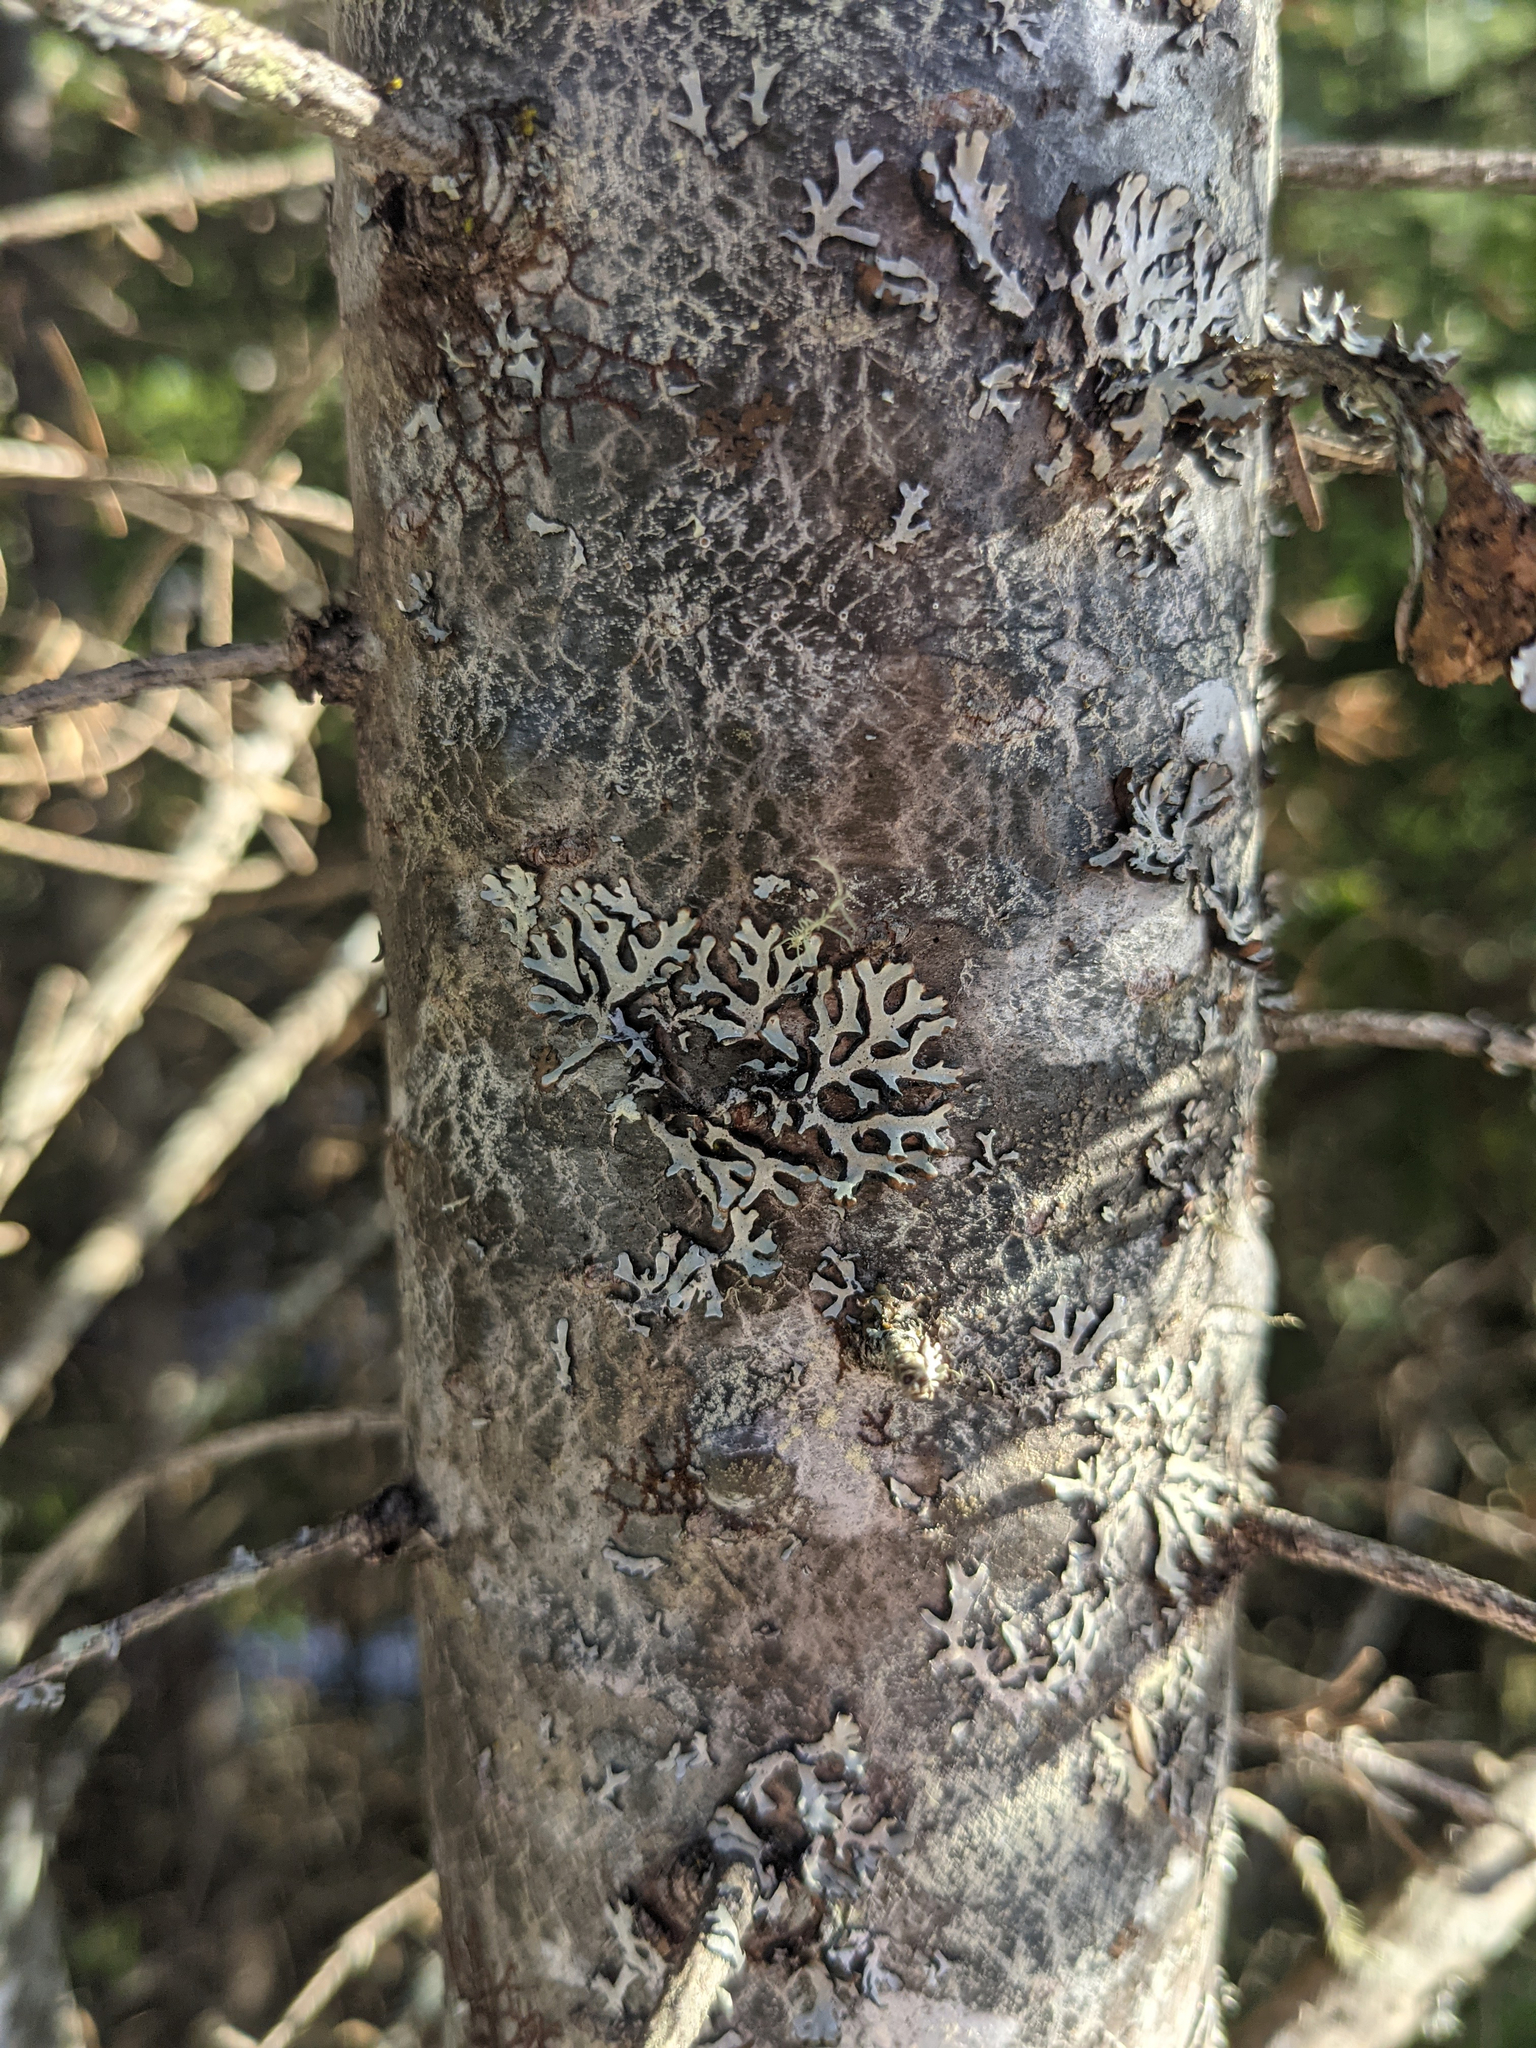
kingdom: Fungi
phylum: Ascomycota
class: Lecanoromycetes
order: Lecanorales
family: Parmeliaceae
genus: Parmelia
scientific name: Parmelia sulcata
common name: Netted shield lichen
